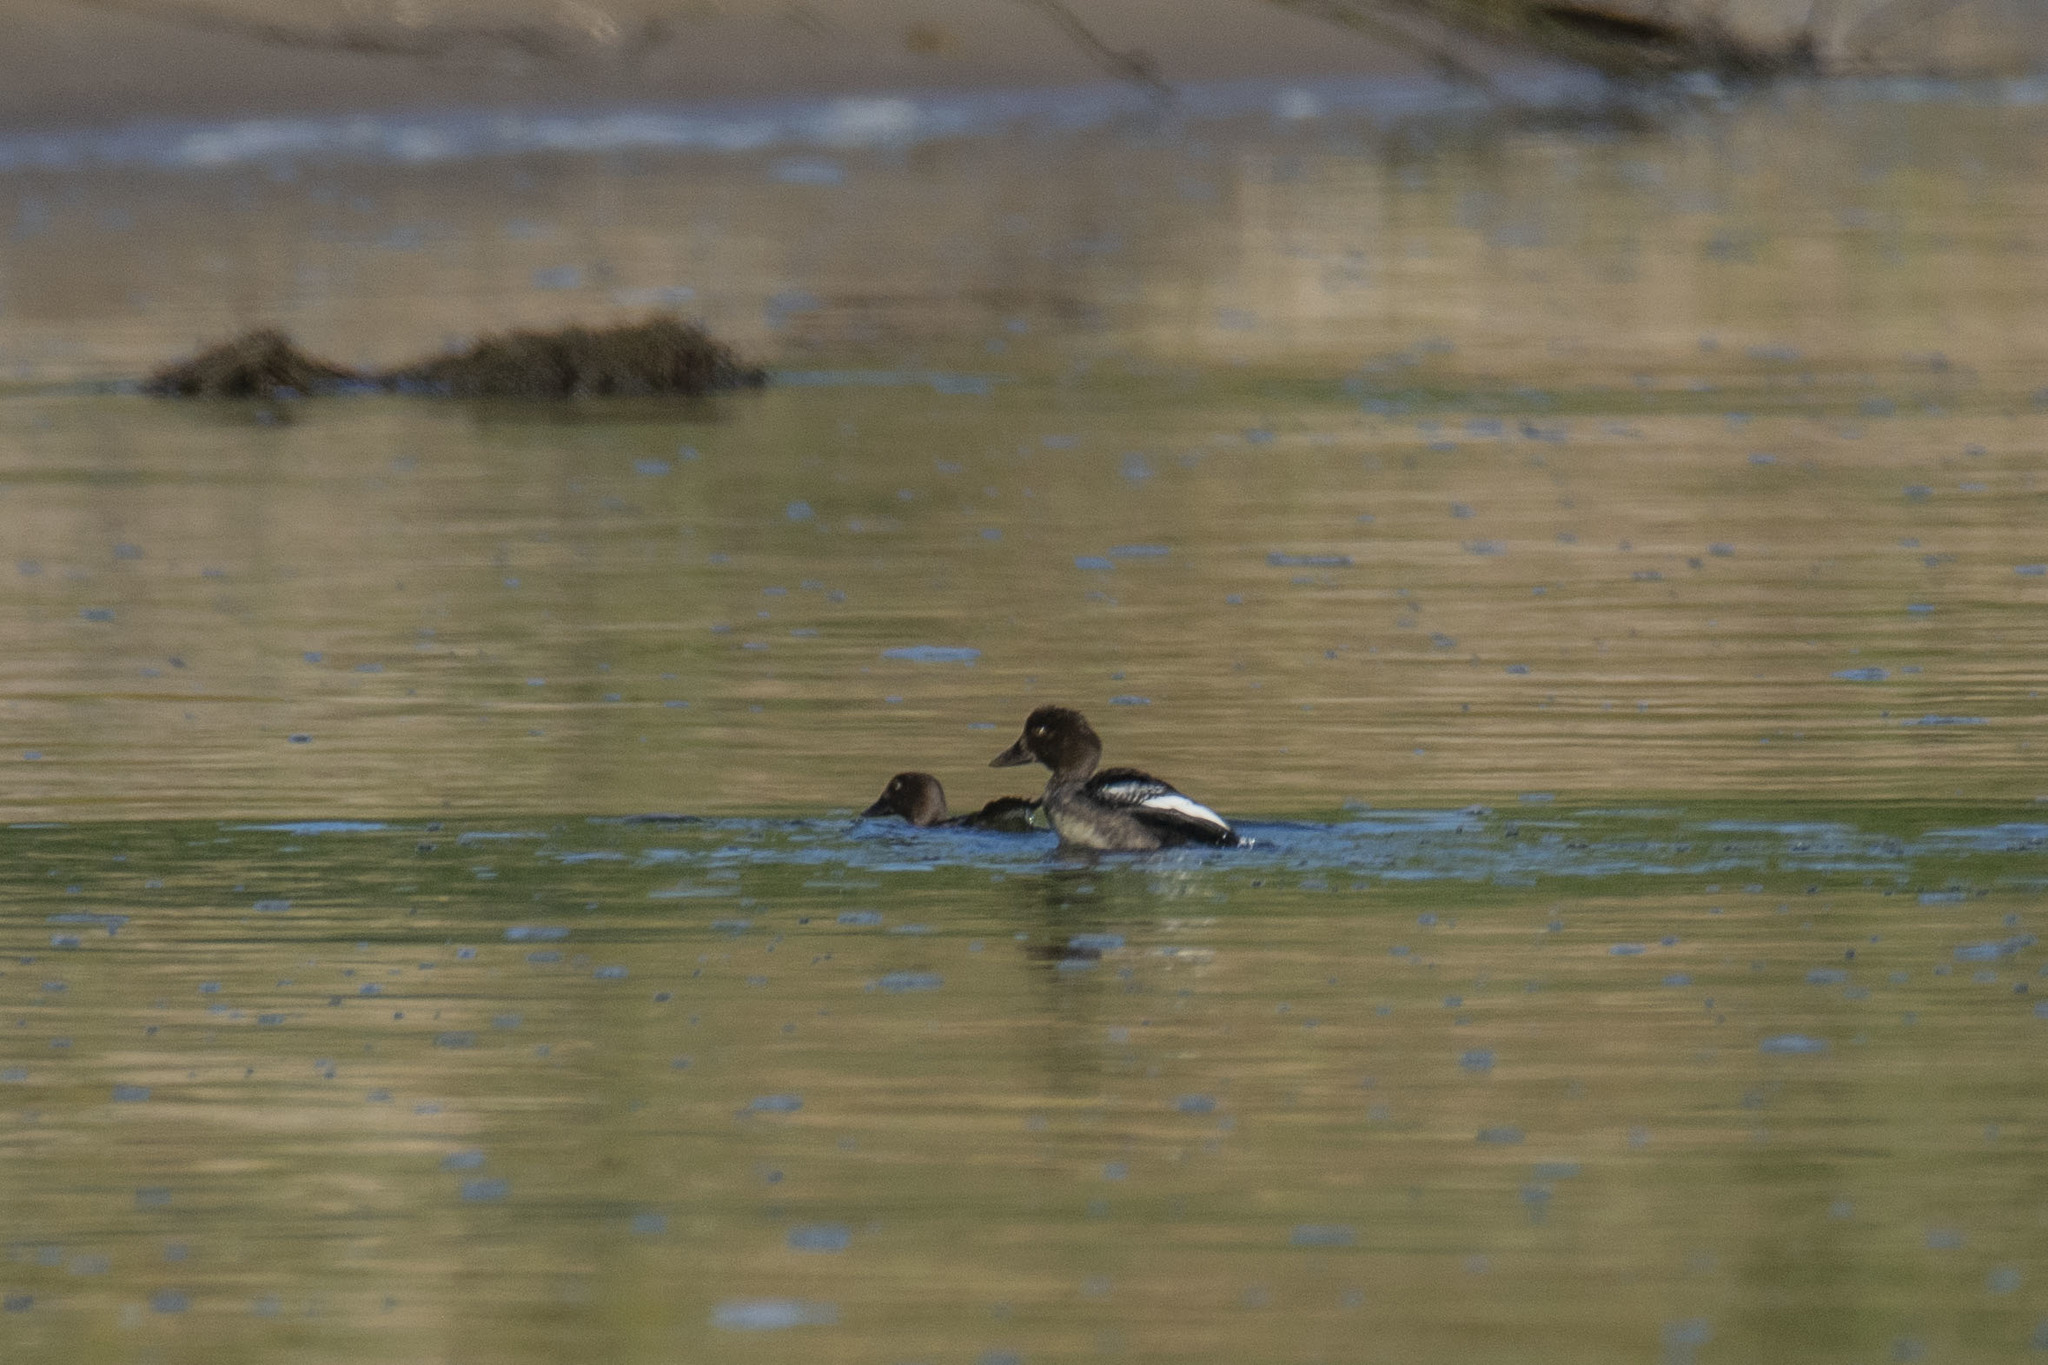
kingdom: Animalia
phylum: Chordata
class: Aves
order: Anseriformes
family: Anatidae
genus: Bucephala
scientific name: Bucephala clangula
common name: Common goldeneye
